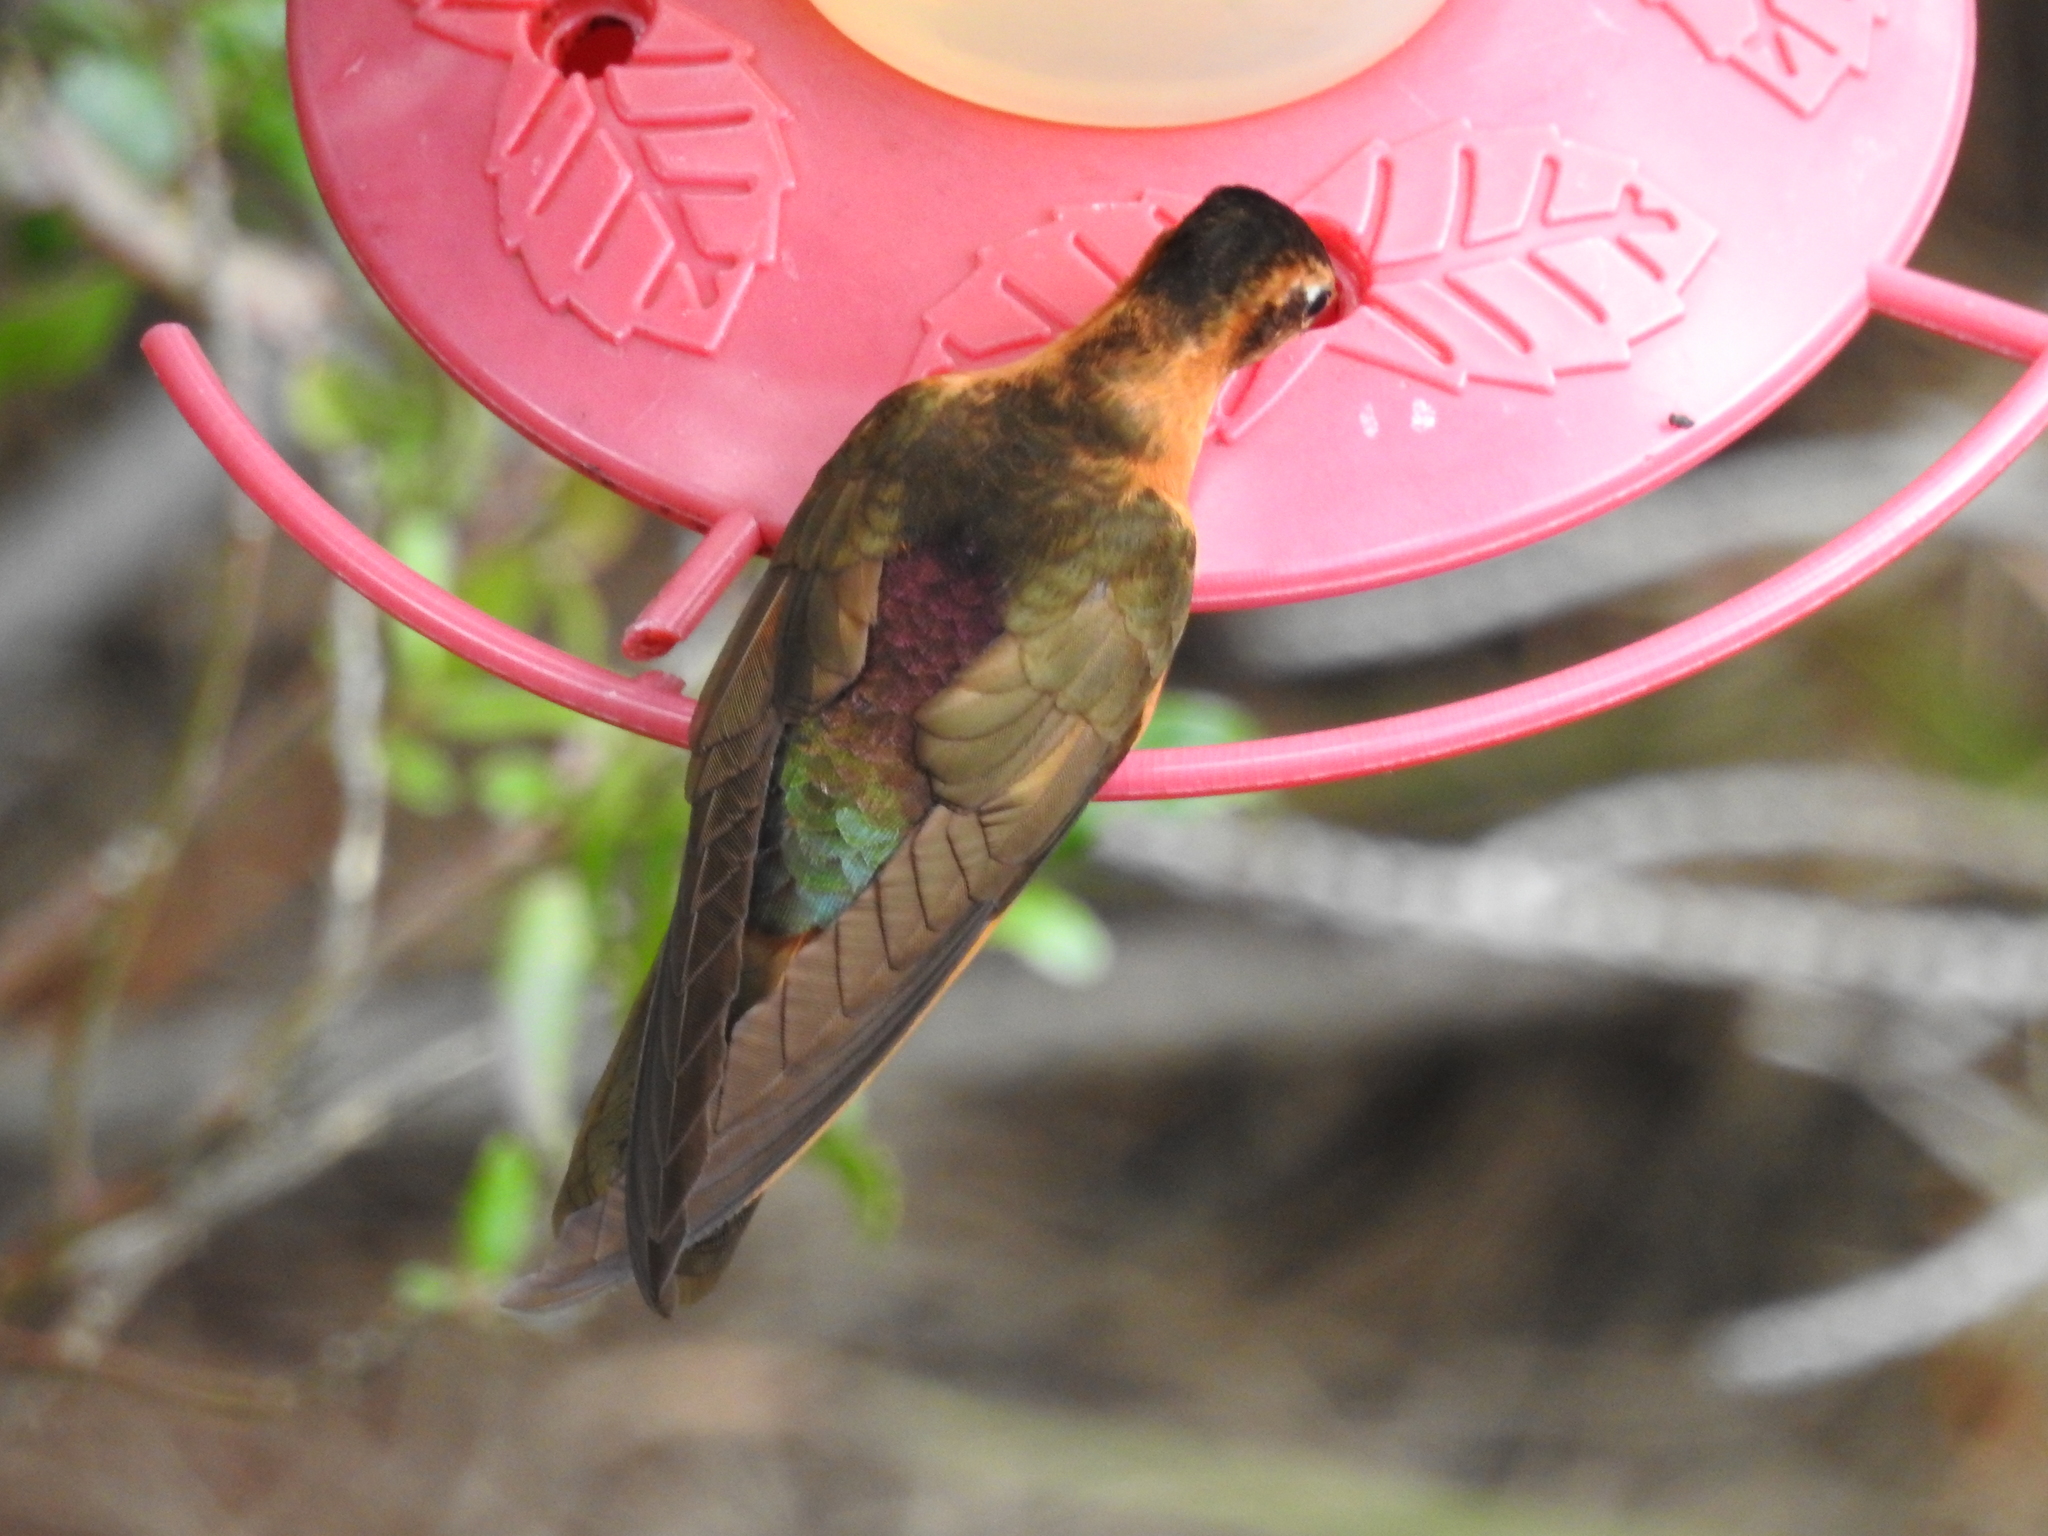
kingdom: Animalia
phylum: Chordata
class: Aves
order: Apodiformes
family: Trochilidae
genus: Aglaeactis
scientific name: Aglaeactis cupripennis
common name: Shining sunbeam
